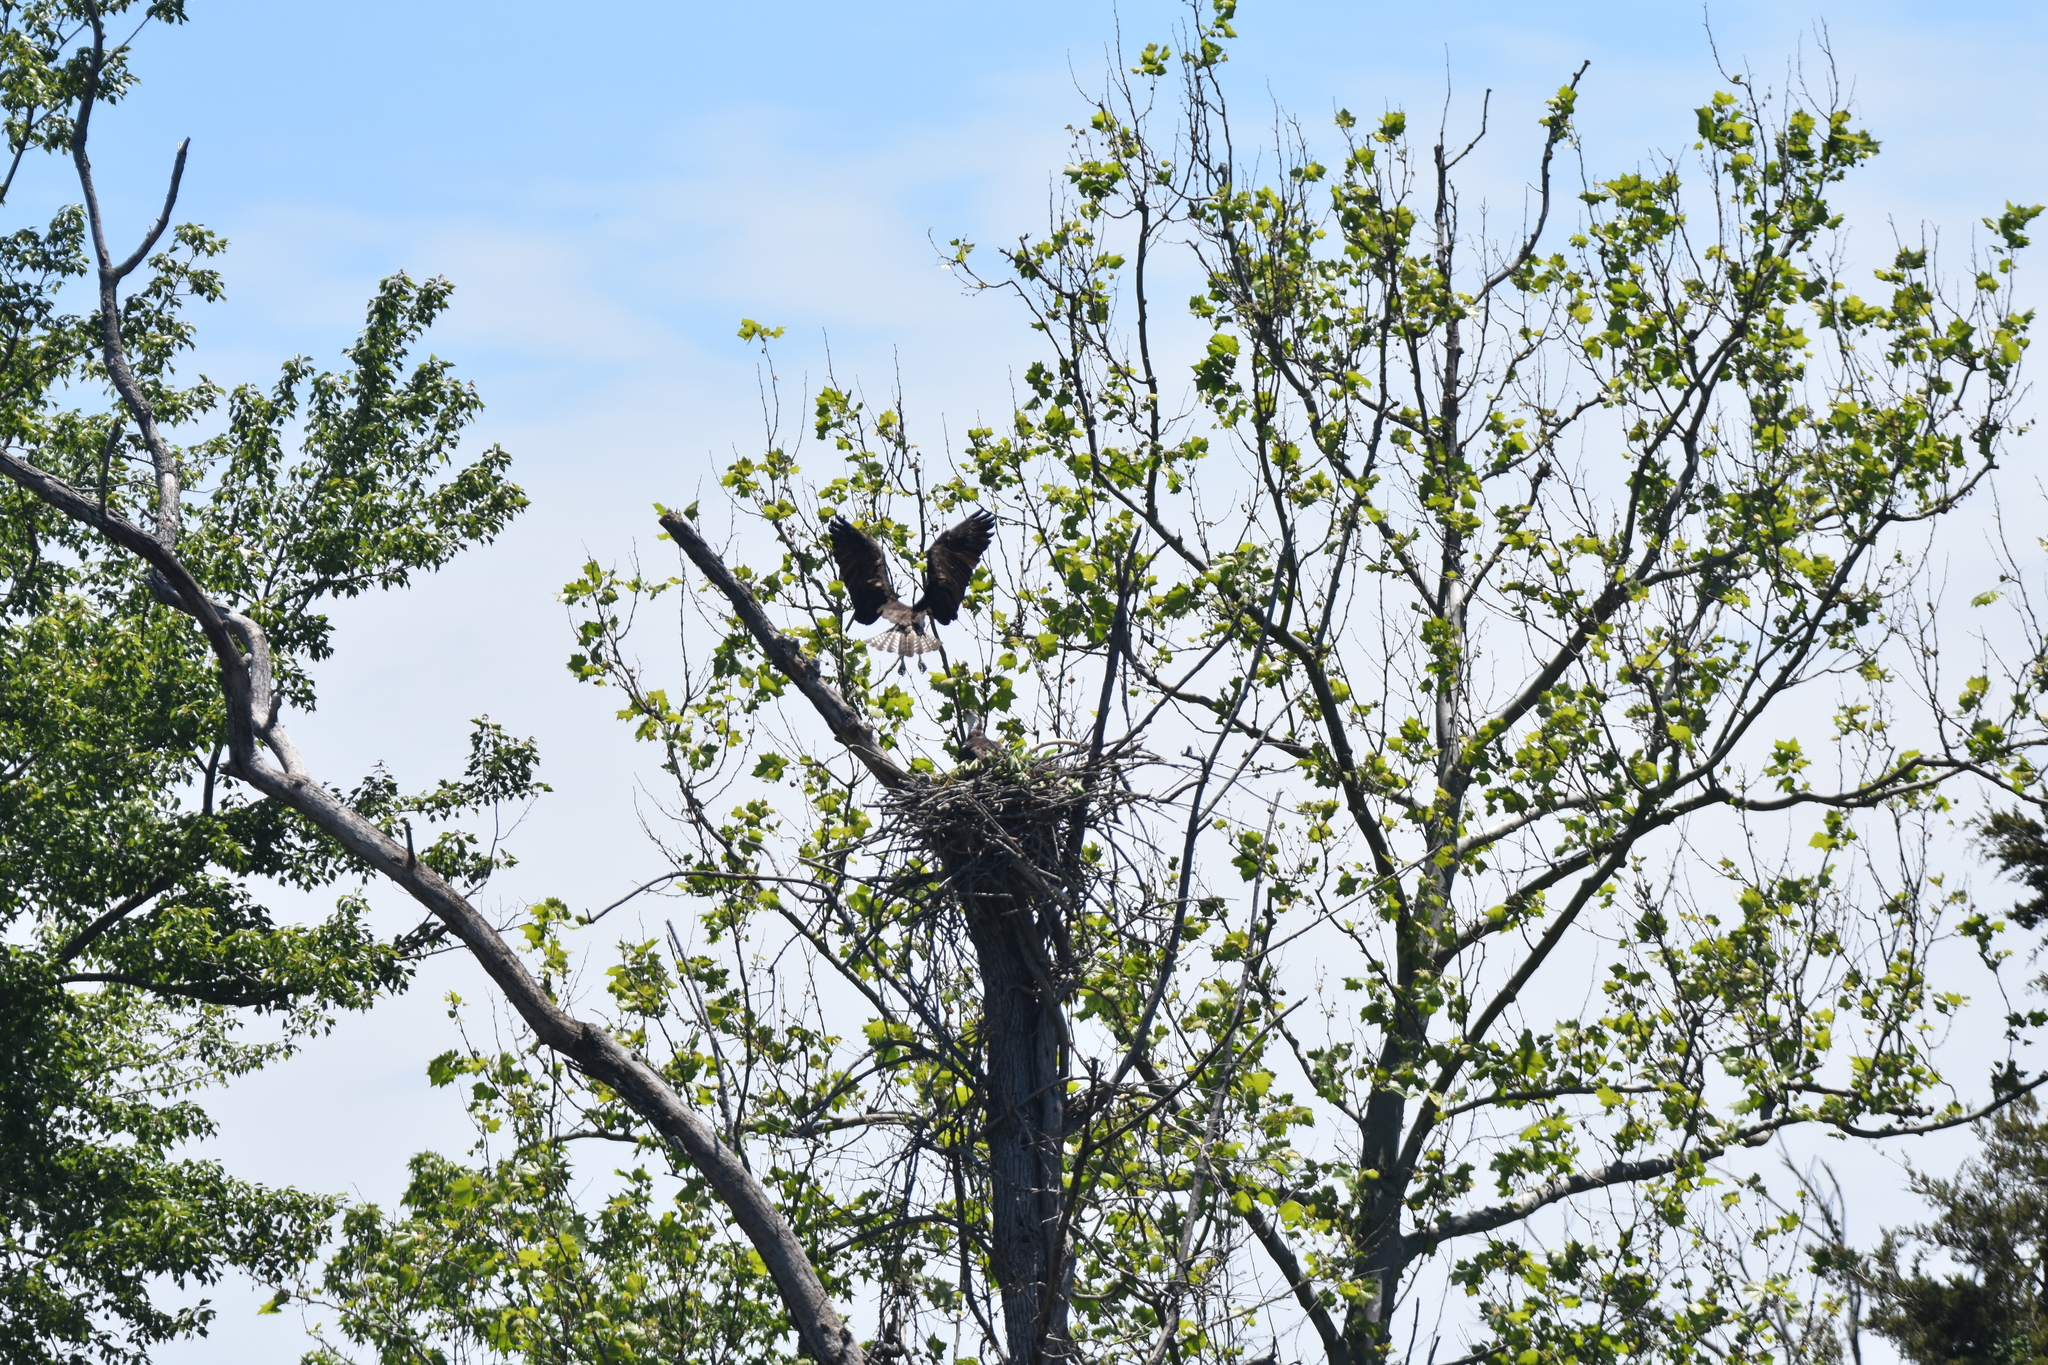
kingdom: Animalia
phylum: Chordata
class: Aves
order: Accipitriformes
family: Pandionidae
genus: Pandion
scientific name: Pandion haliaetus
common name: Osprey
